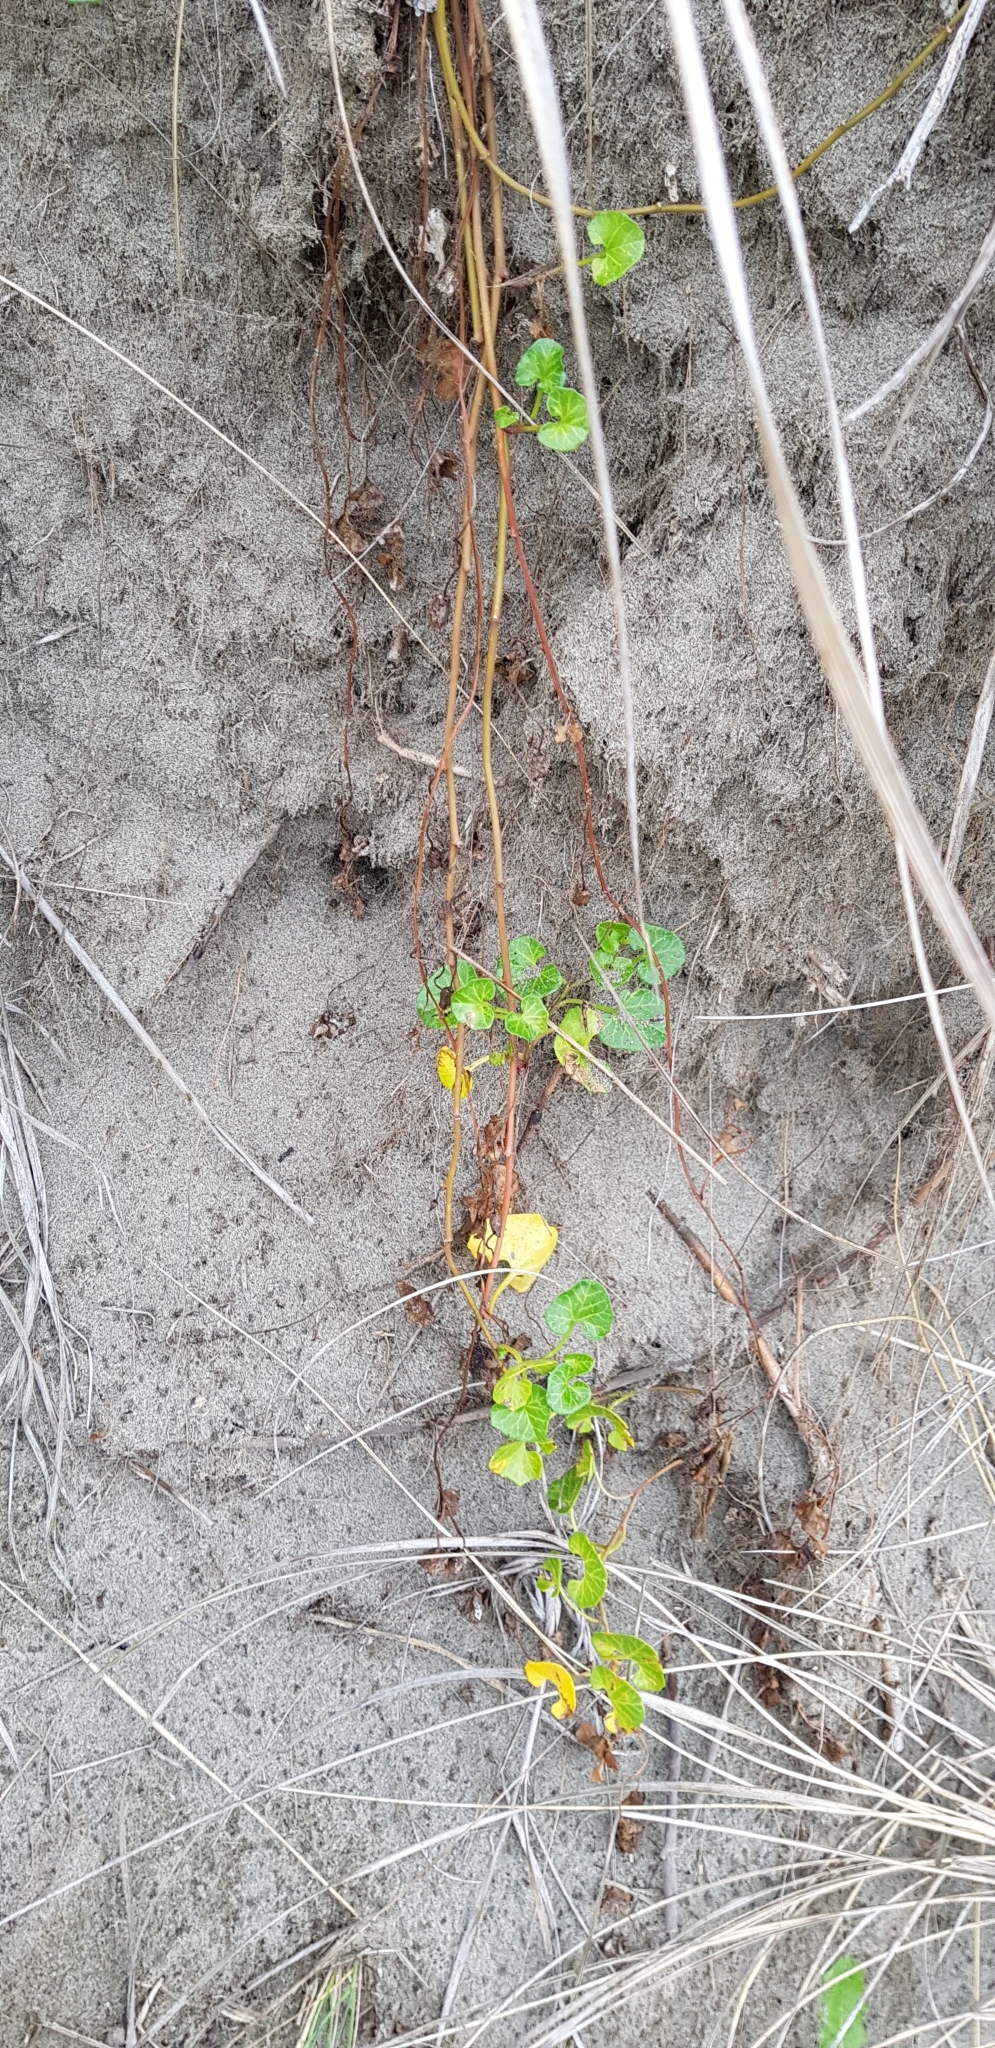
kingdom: Plantae
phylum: Tracheophyta
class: Magnoliopsida
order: Solanales
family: Convolvulaceae
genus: Calystegia
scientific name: Calystegia soldanella
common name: Sea bindweed
